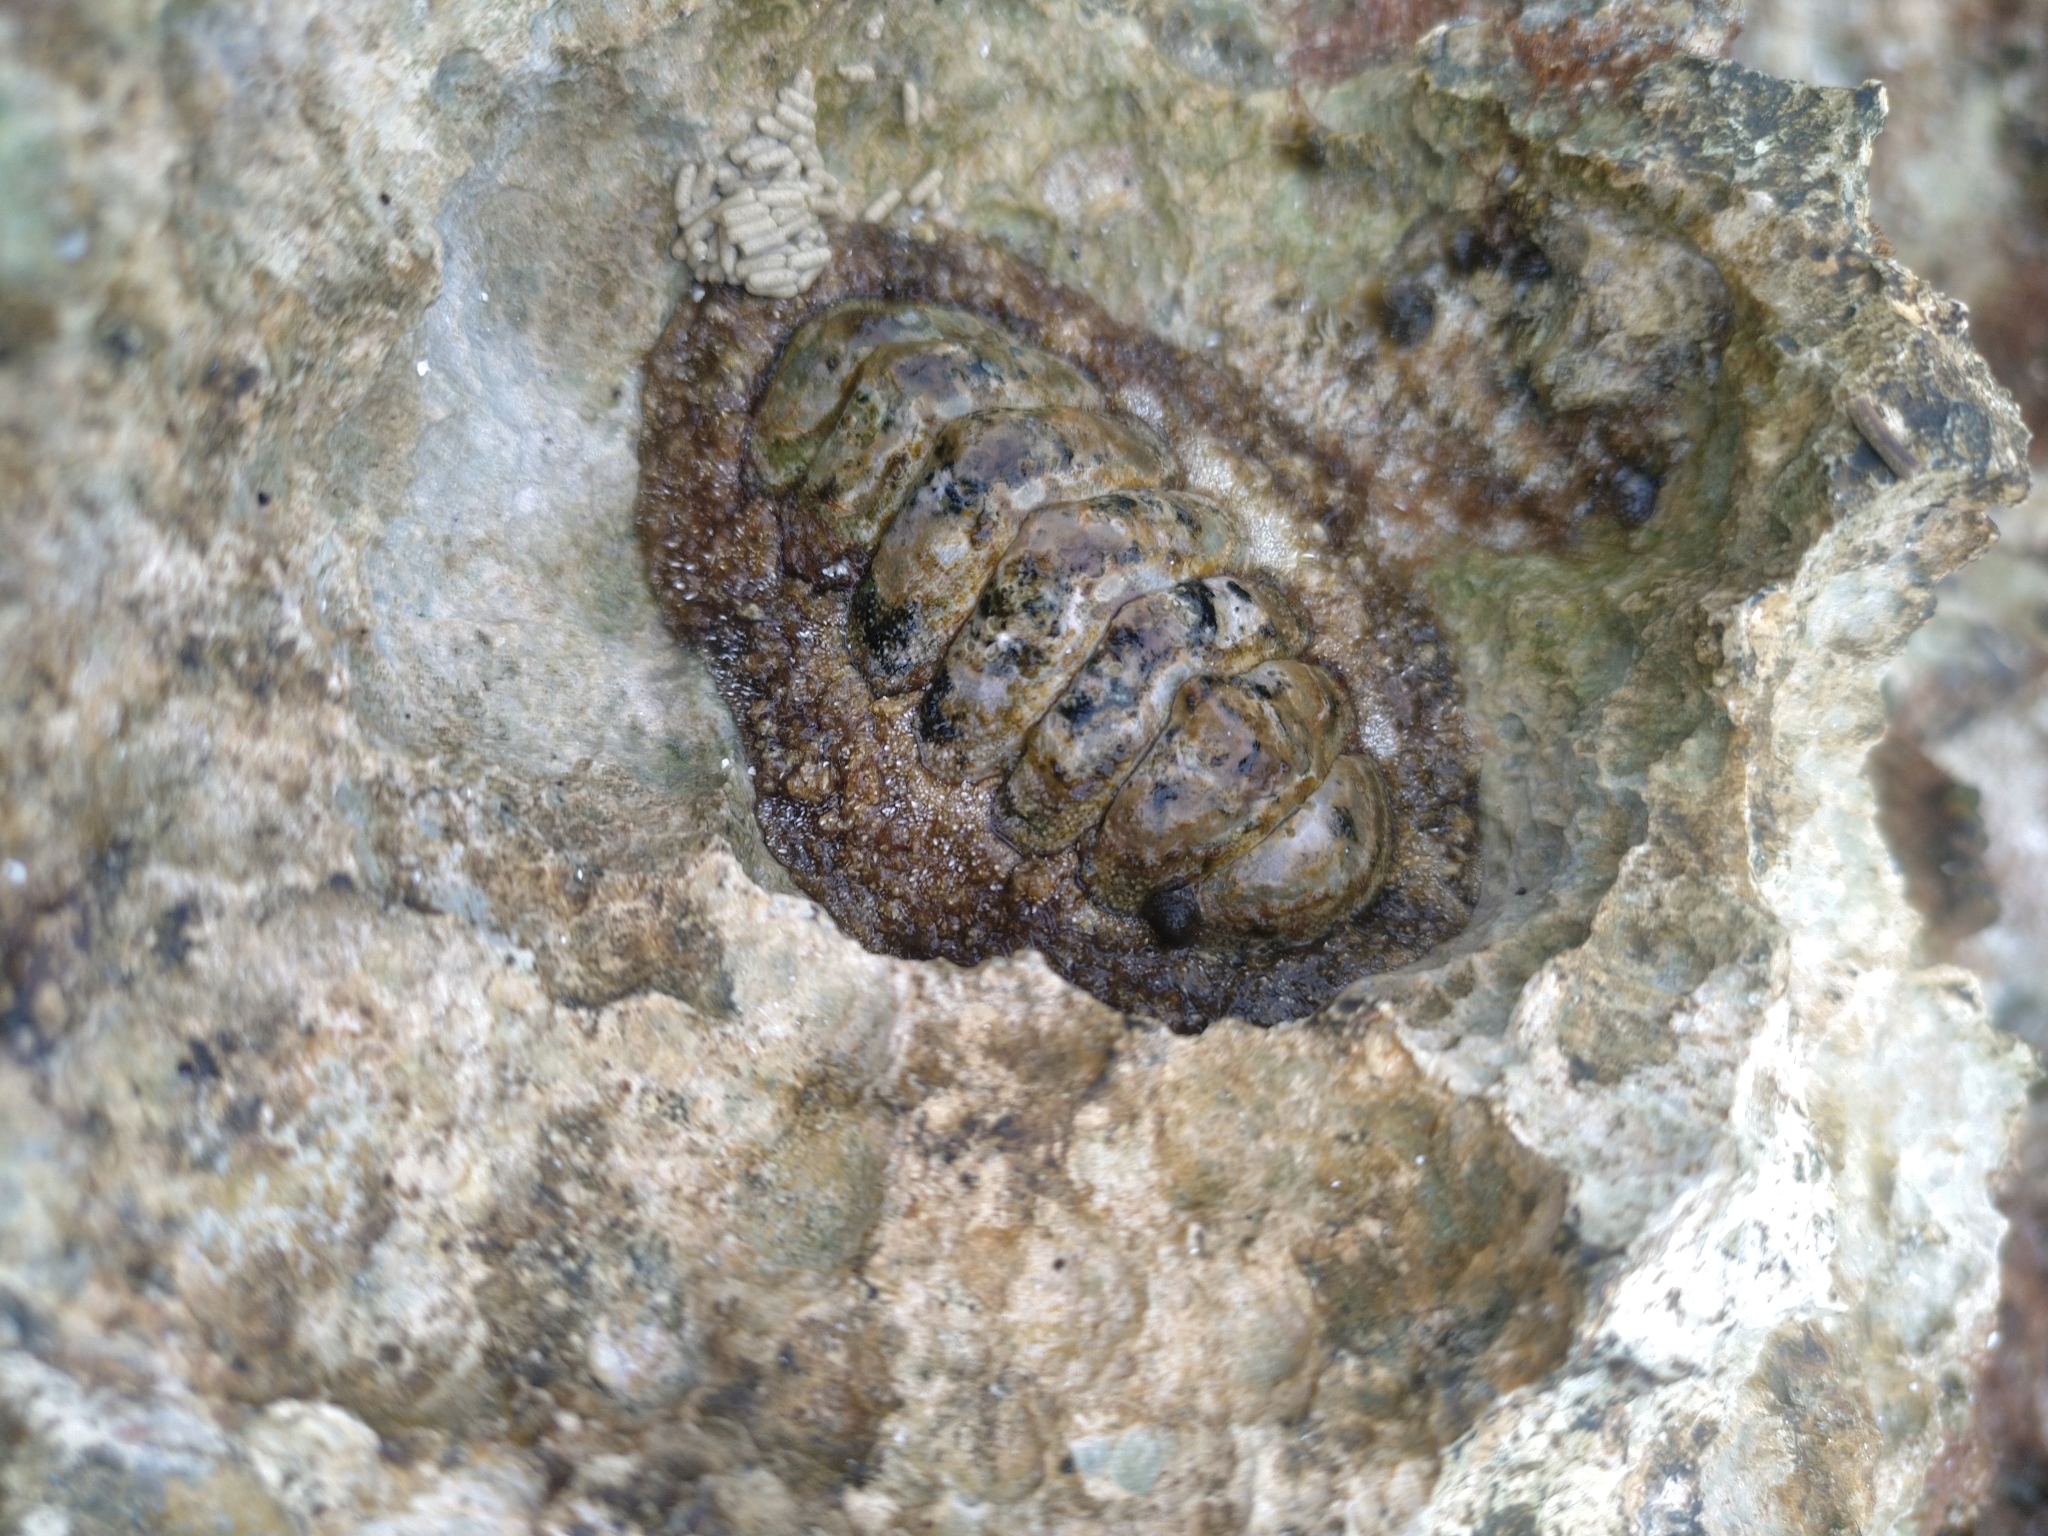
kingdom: Animalia
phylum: Mollusca
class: Polyplacophora
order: Chitonida
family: Chitonidae
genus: Acanthopleura
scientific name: Acanthopleura granulata
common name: West indian fuzzy chiton
